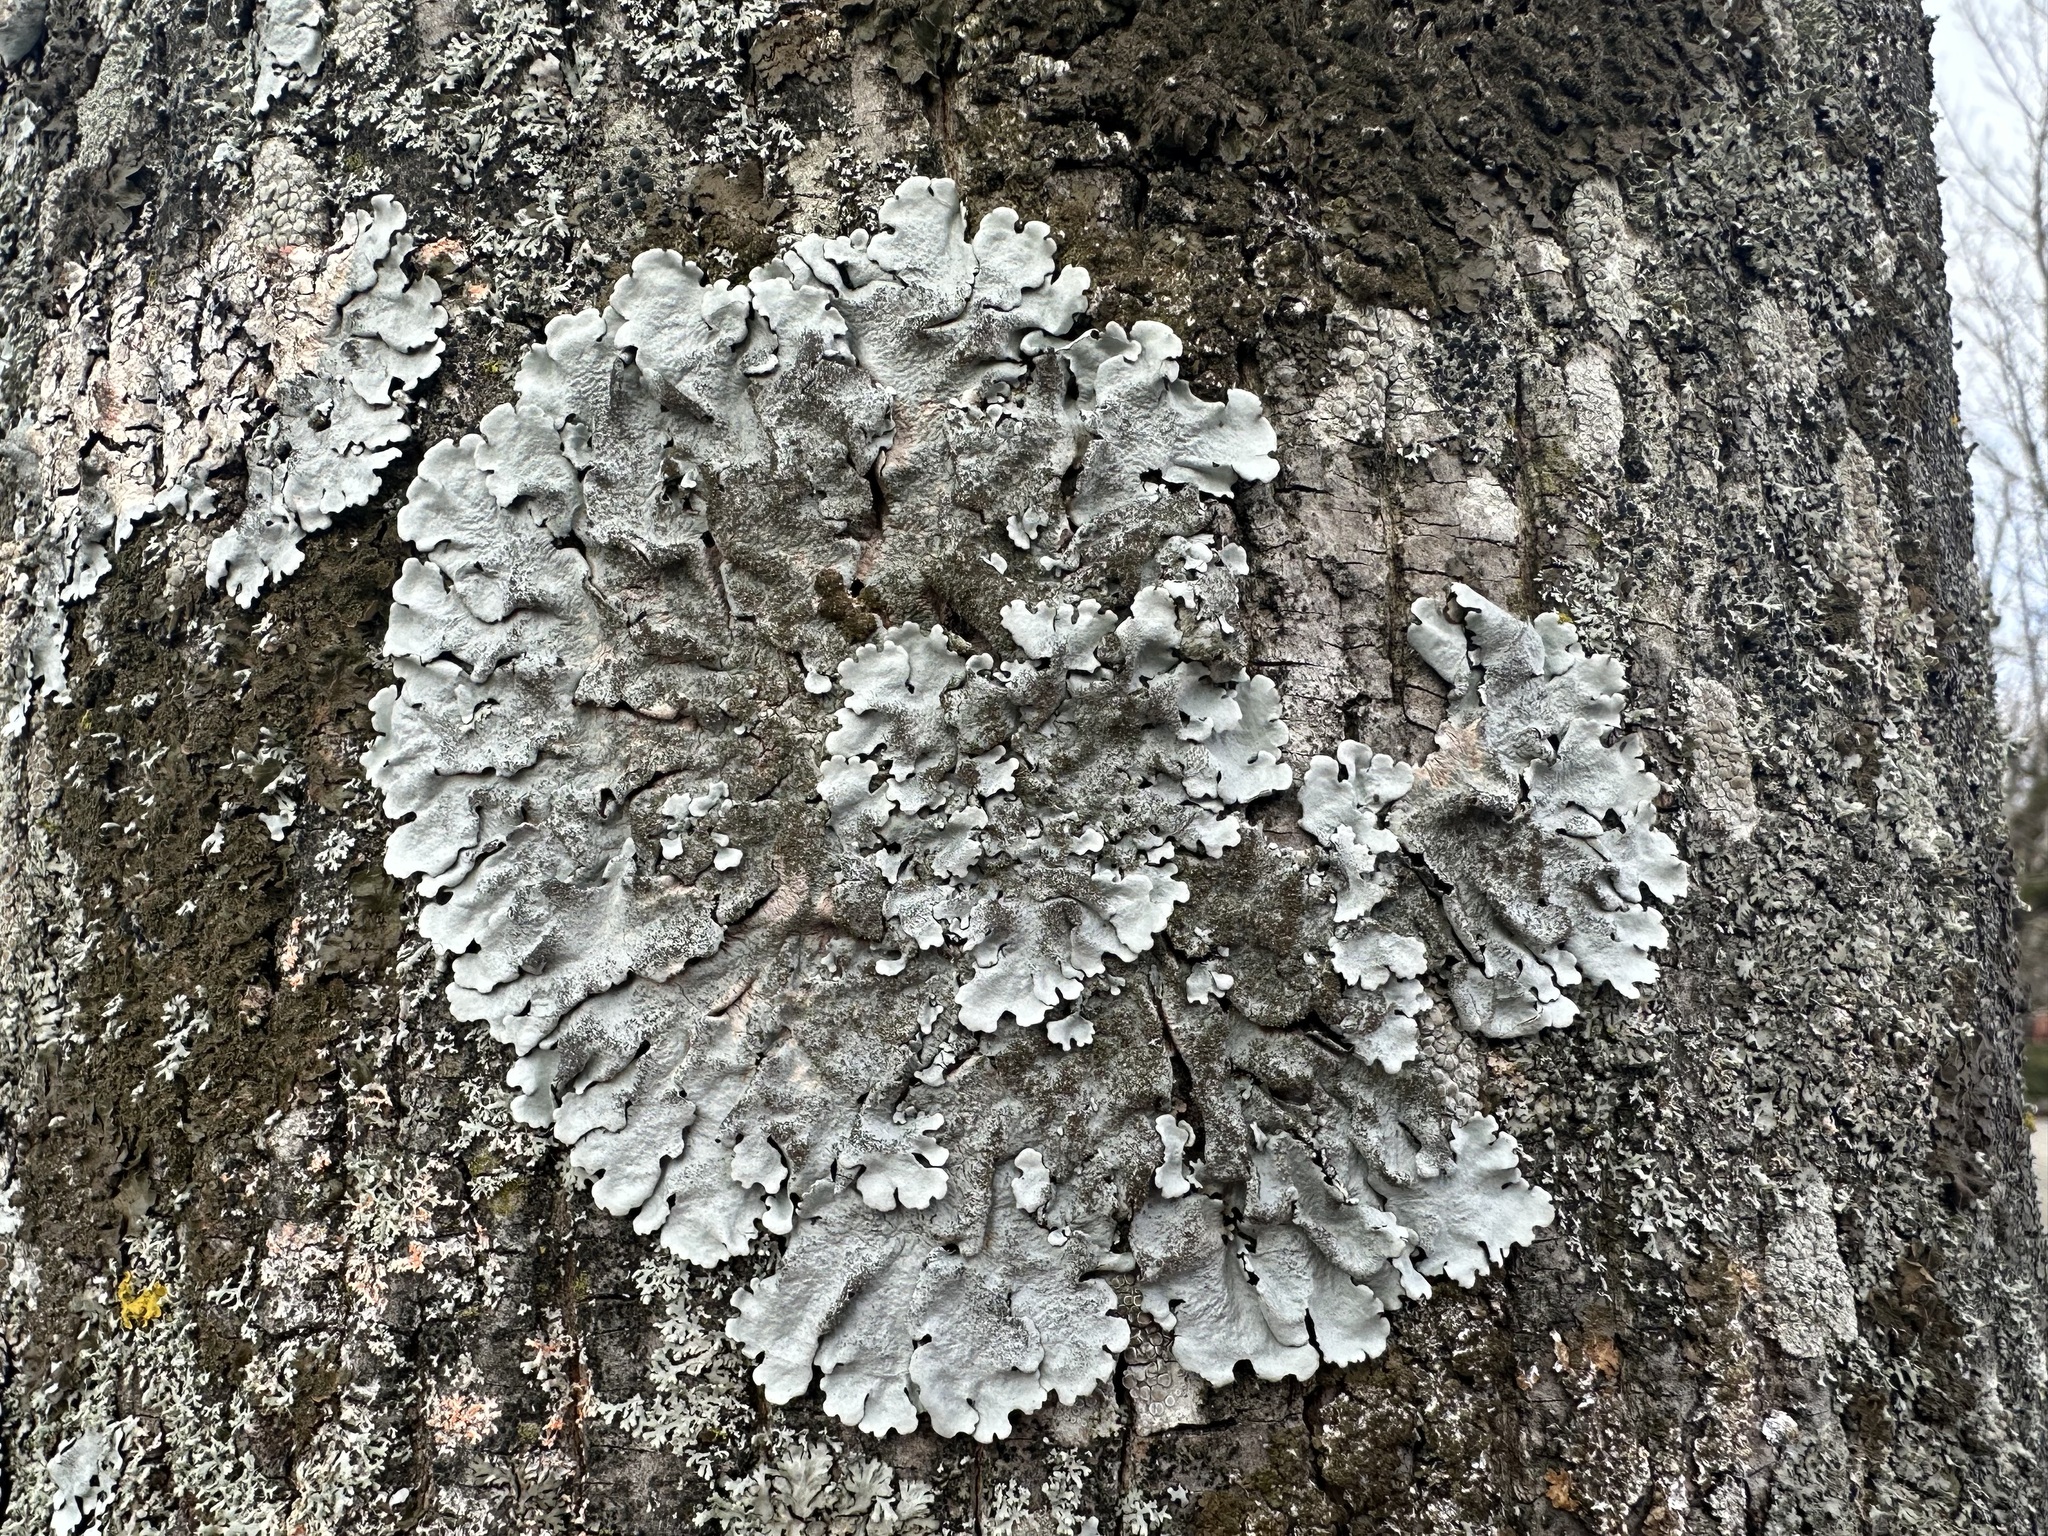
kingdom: Fungi
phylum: Ascomycota
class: Lecanoromycetes
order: Lecanorales
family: Parmeliaceae
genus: Parmelina
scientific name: Parmelina tiliacea
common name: Linden shield lichen
